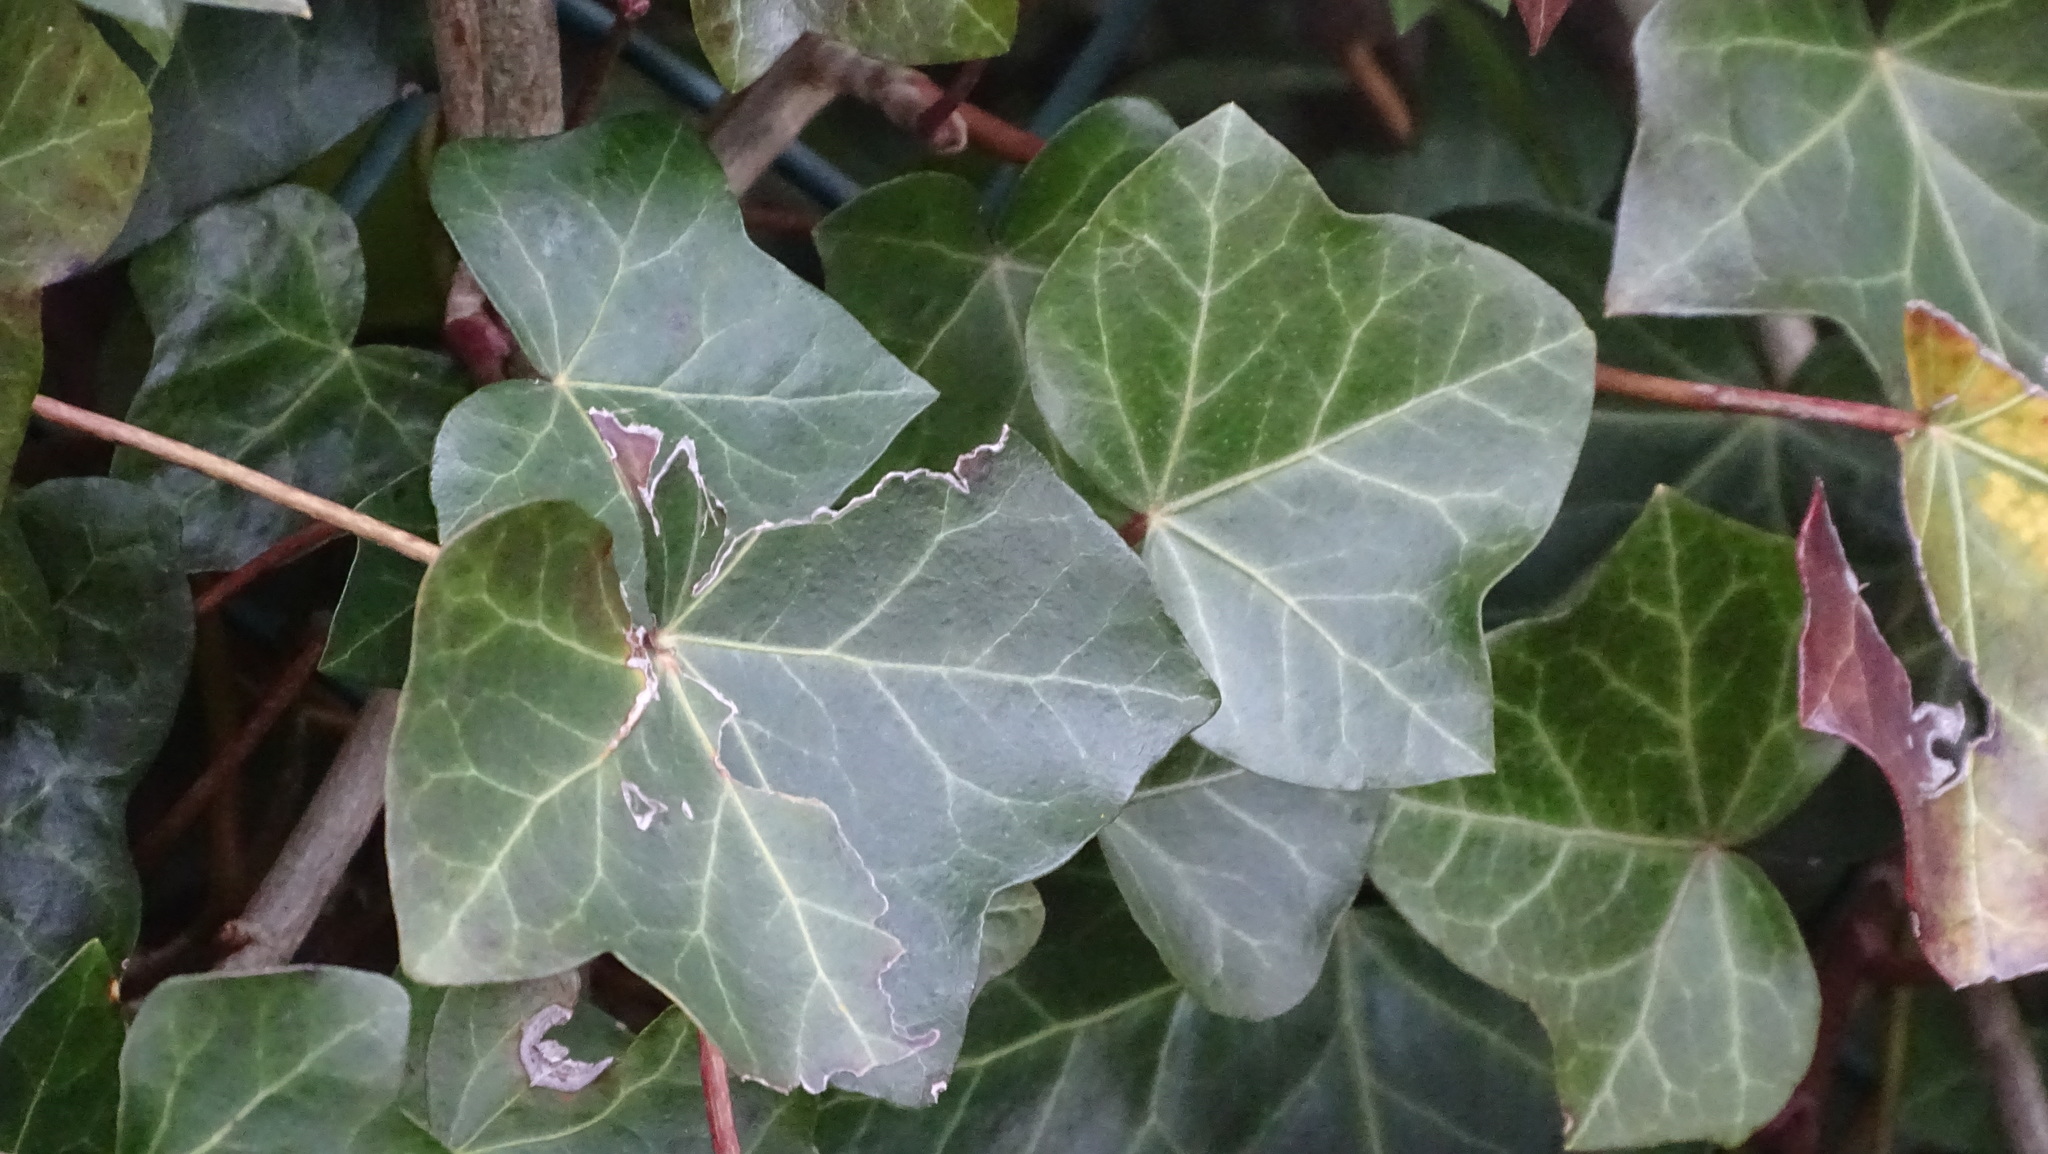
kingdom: Plantae
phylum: Tracheophyta
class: Magnoliopsida
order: Apiales
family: Araliaceae
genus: Hedera
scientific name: Hedera helix
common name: Ivy
